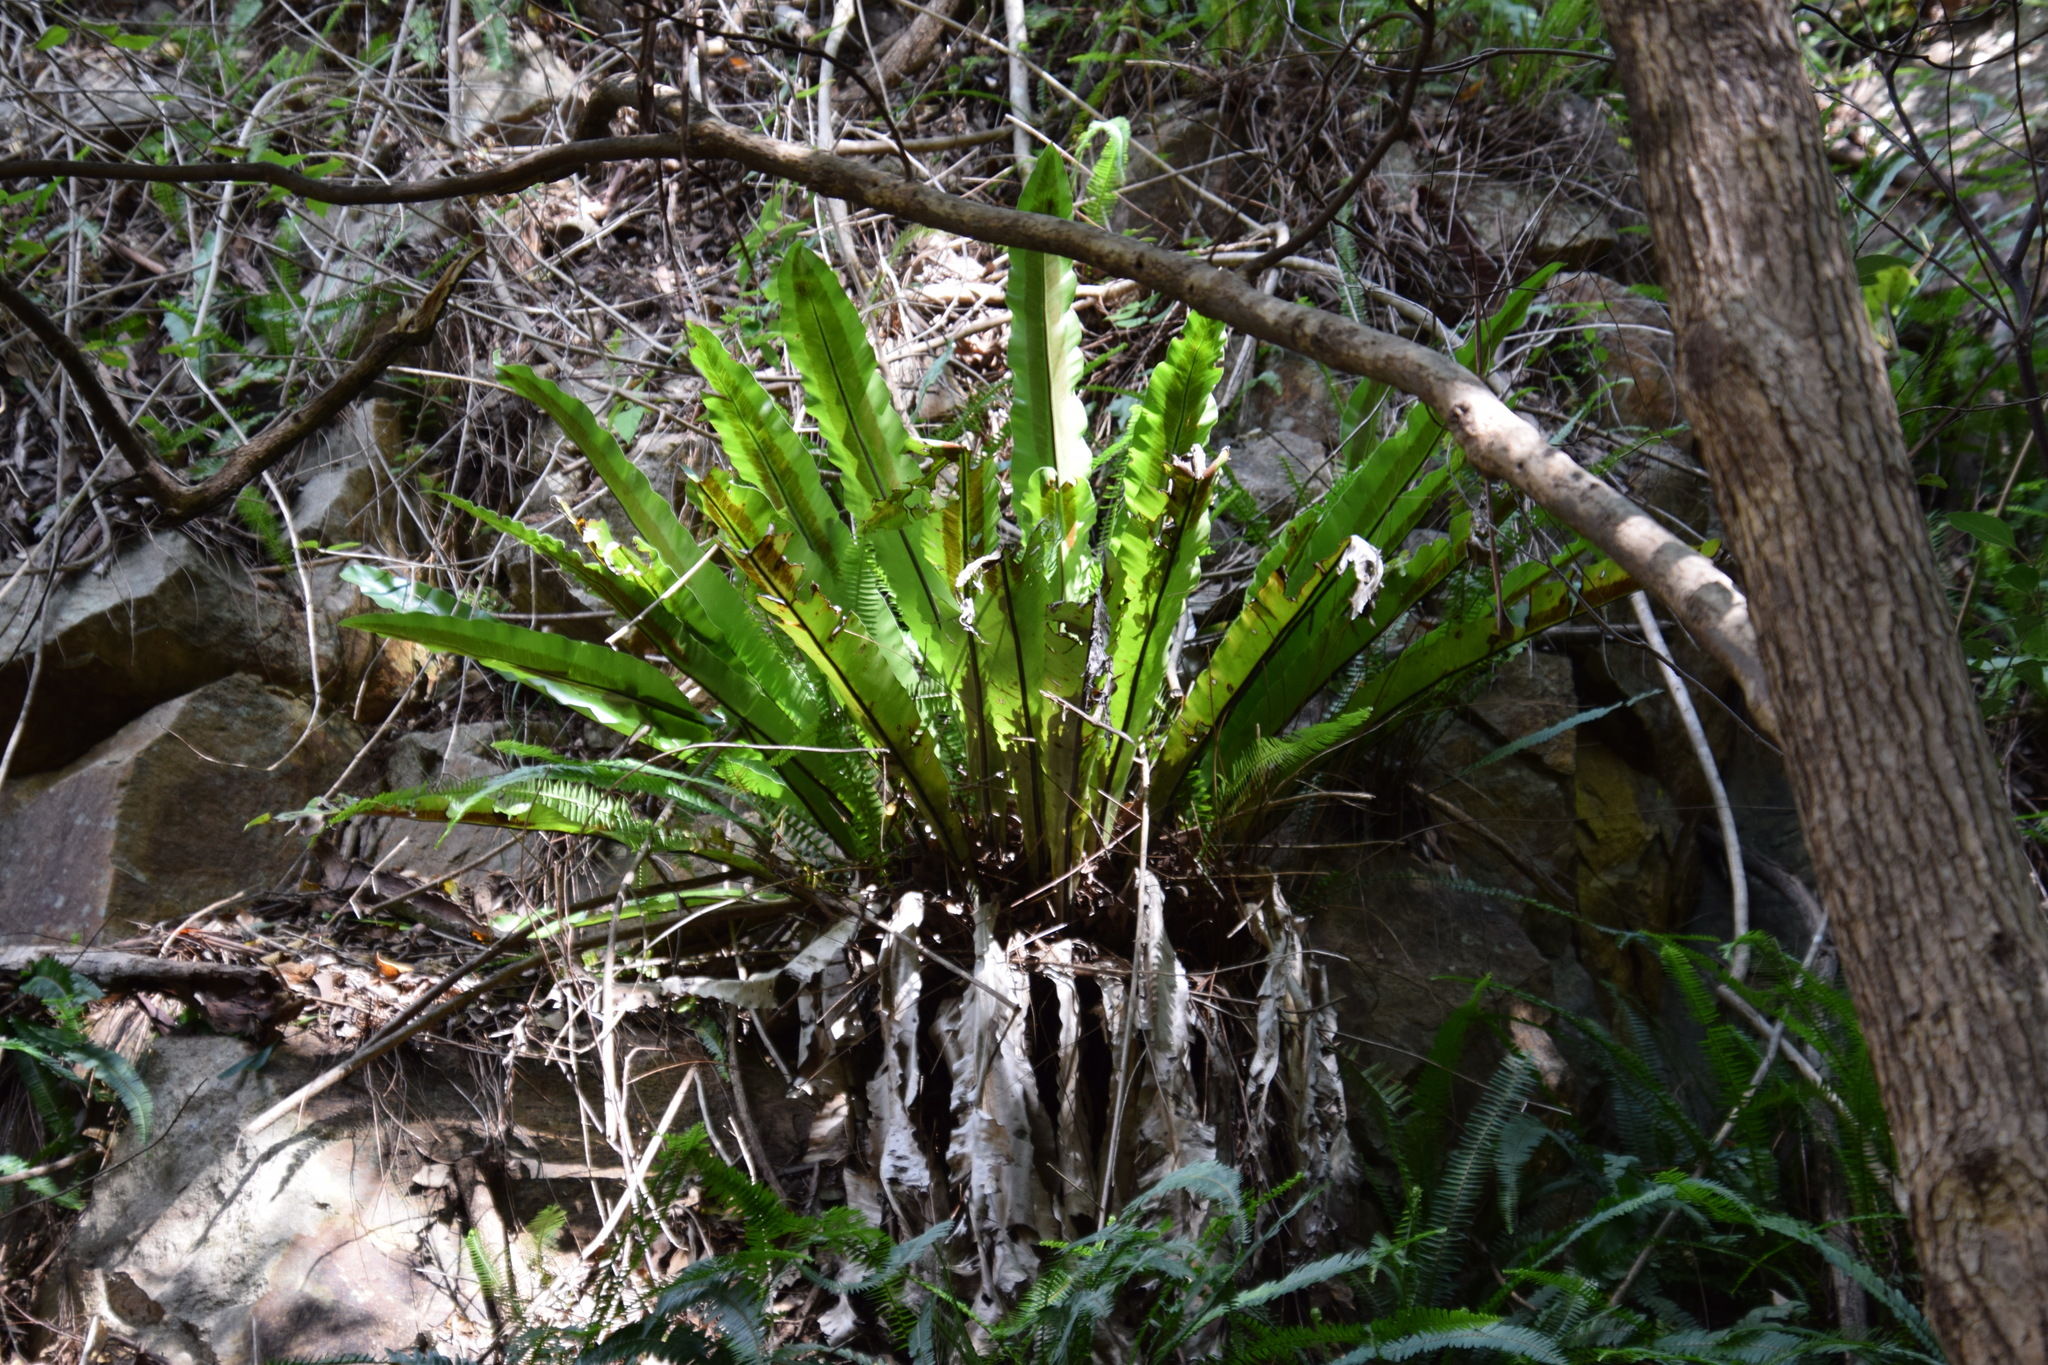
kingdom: Plantae
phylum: Tracheophyta
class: Polypodiopsida
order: Polypodiales
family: Aspleniaceae
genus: Asplenium
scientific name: Asplenium australasicum
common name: Bird's-nest fern
